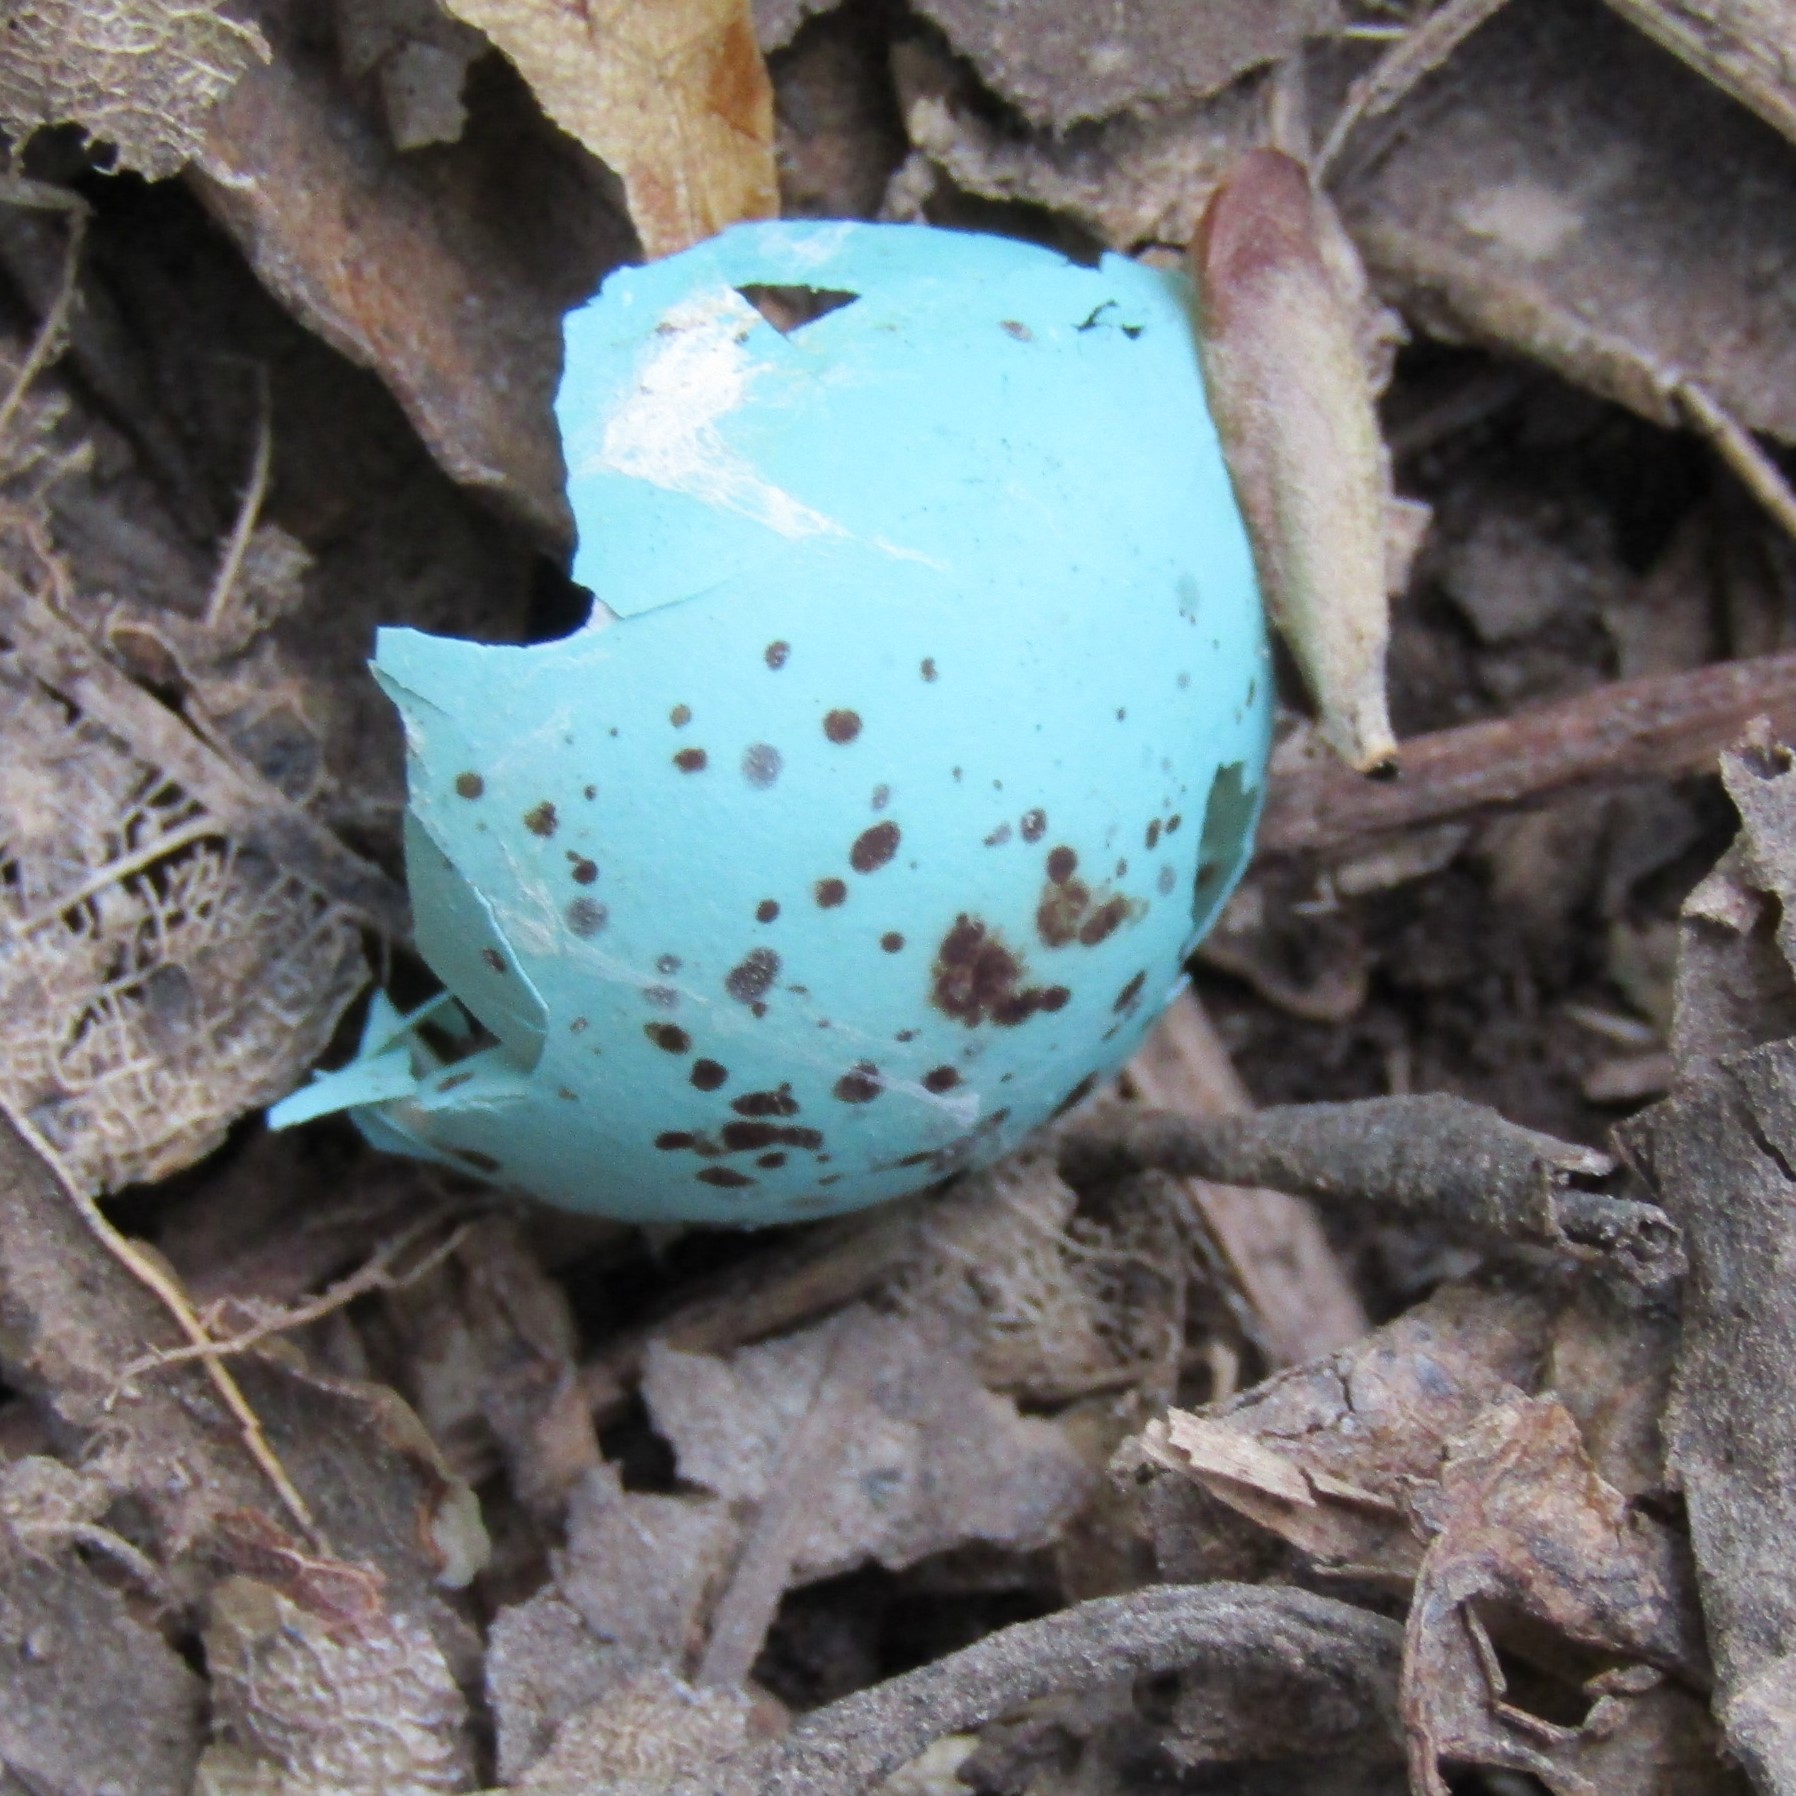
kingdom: Animalia
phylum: Chordata
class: Aves
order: Passeriformes
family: Turdidae
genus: Turdus
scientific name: Turdus philomelos
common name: Song thrush
